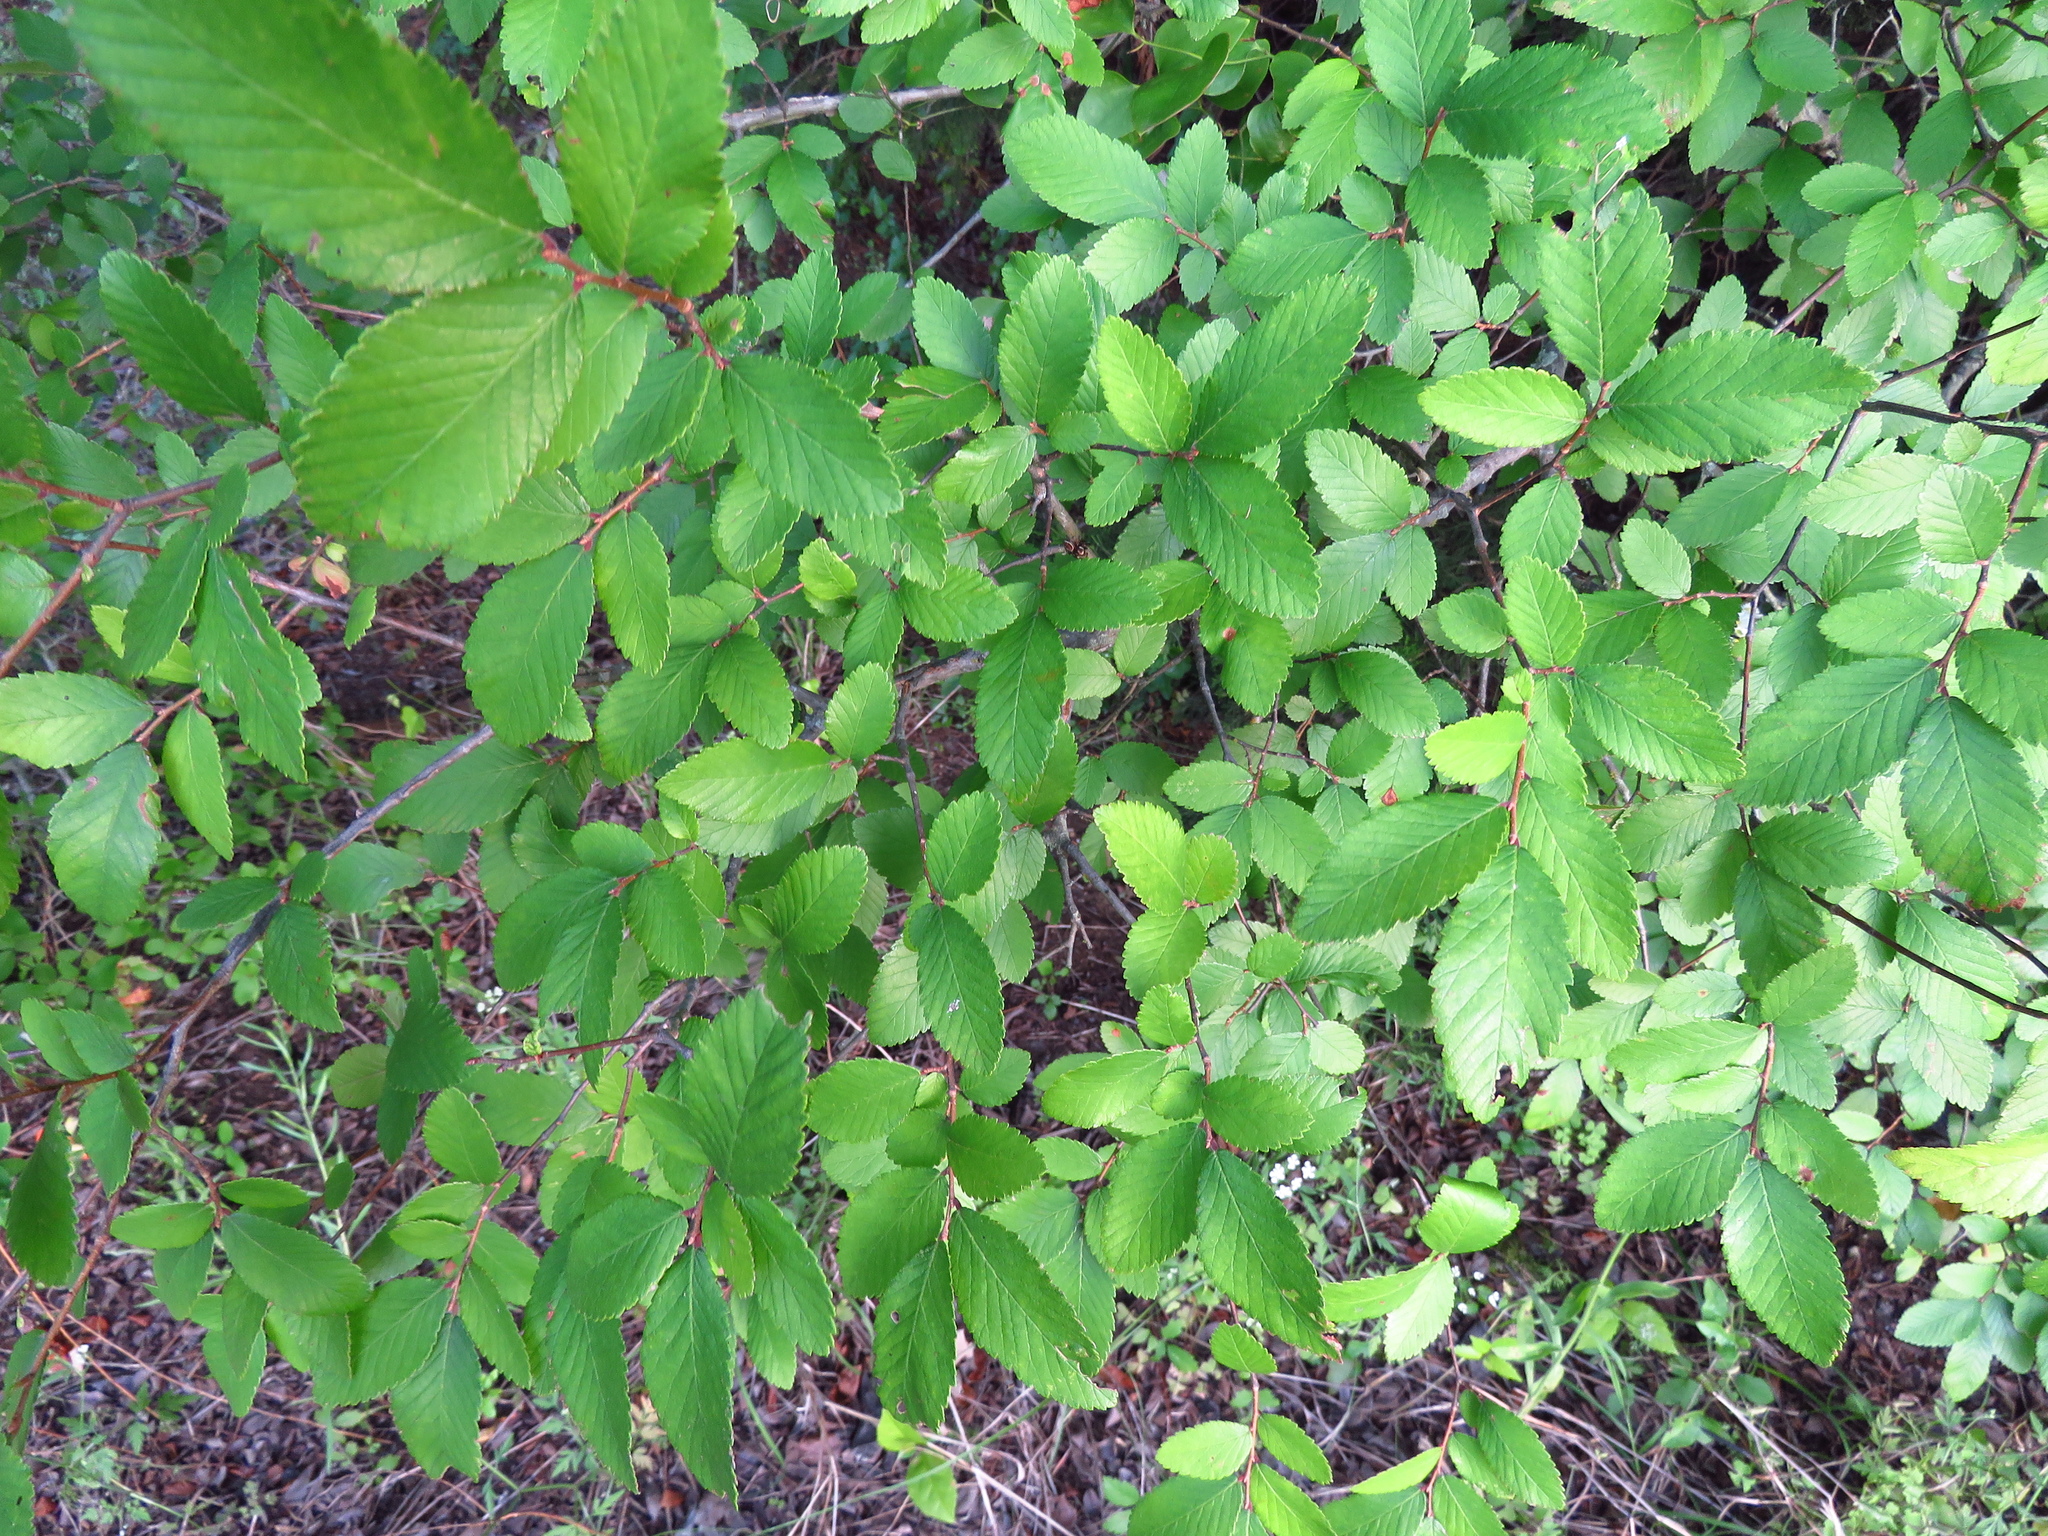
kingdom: Plantae
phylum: Tracheophyta
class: Magnoliopsida
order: Rosales
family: Ulmaceae
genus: Ulmus
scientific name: Ulmus crassifolia
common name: Basket elm
